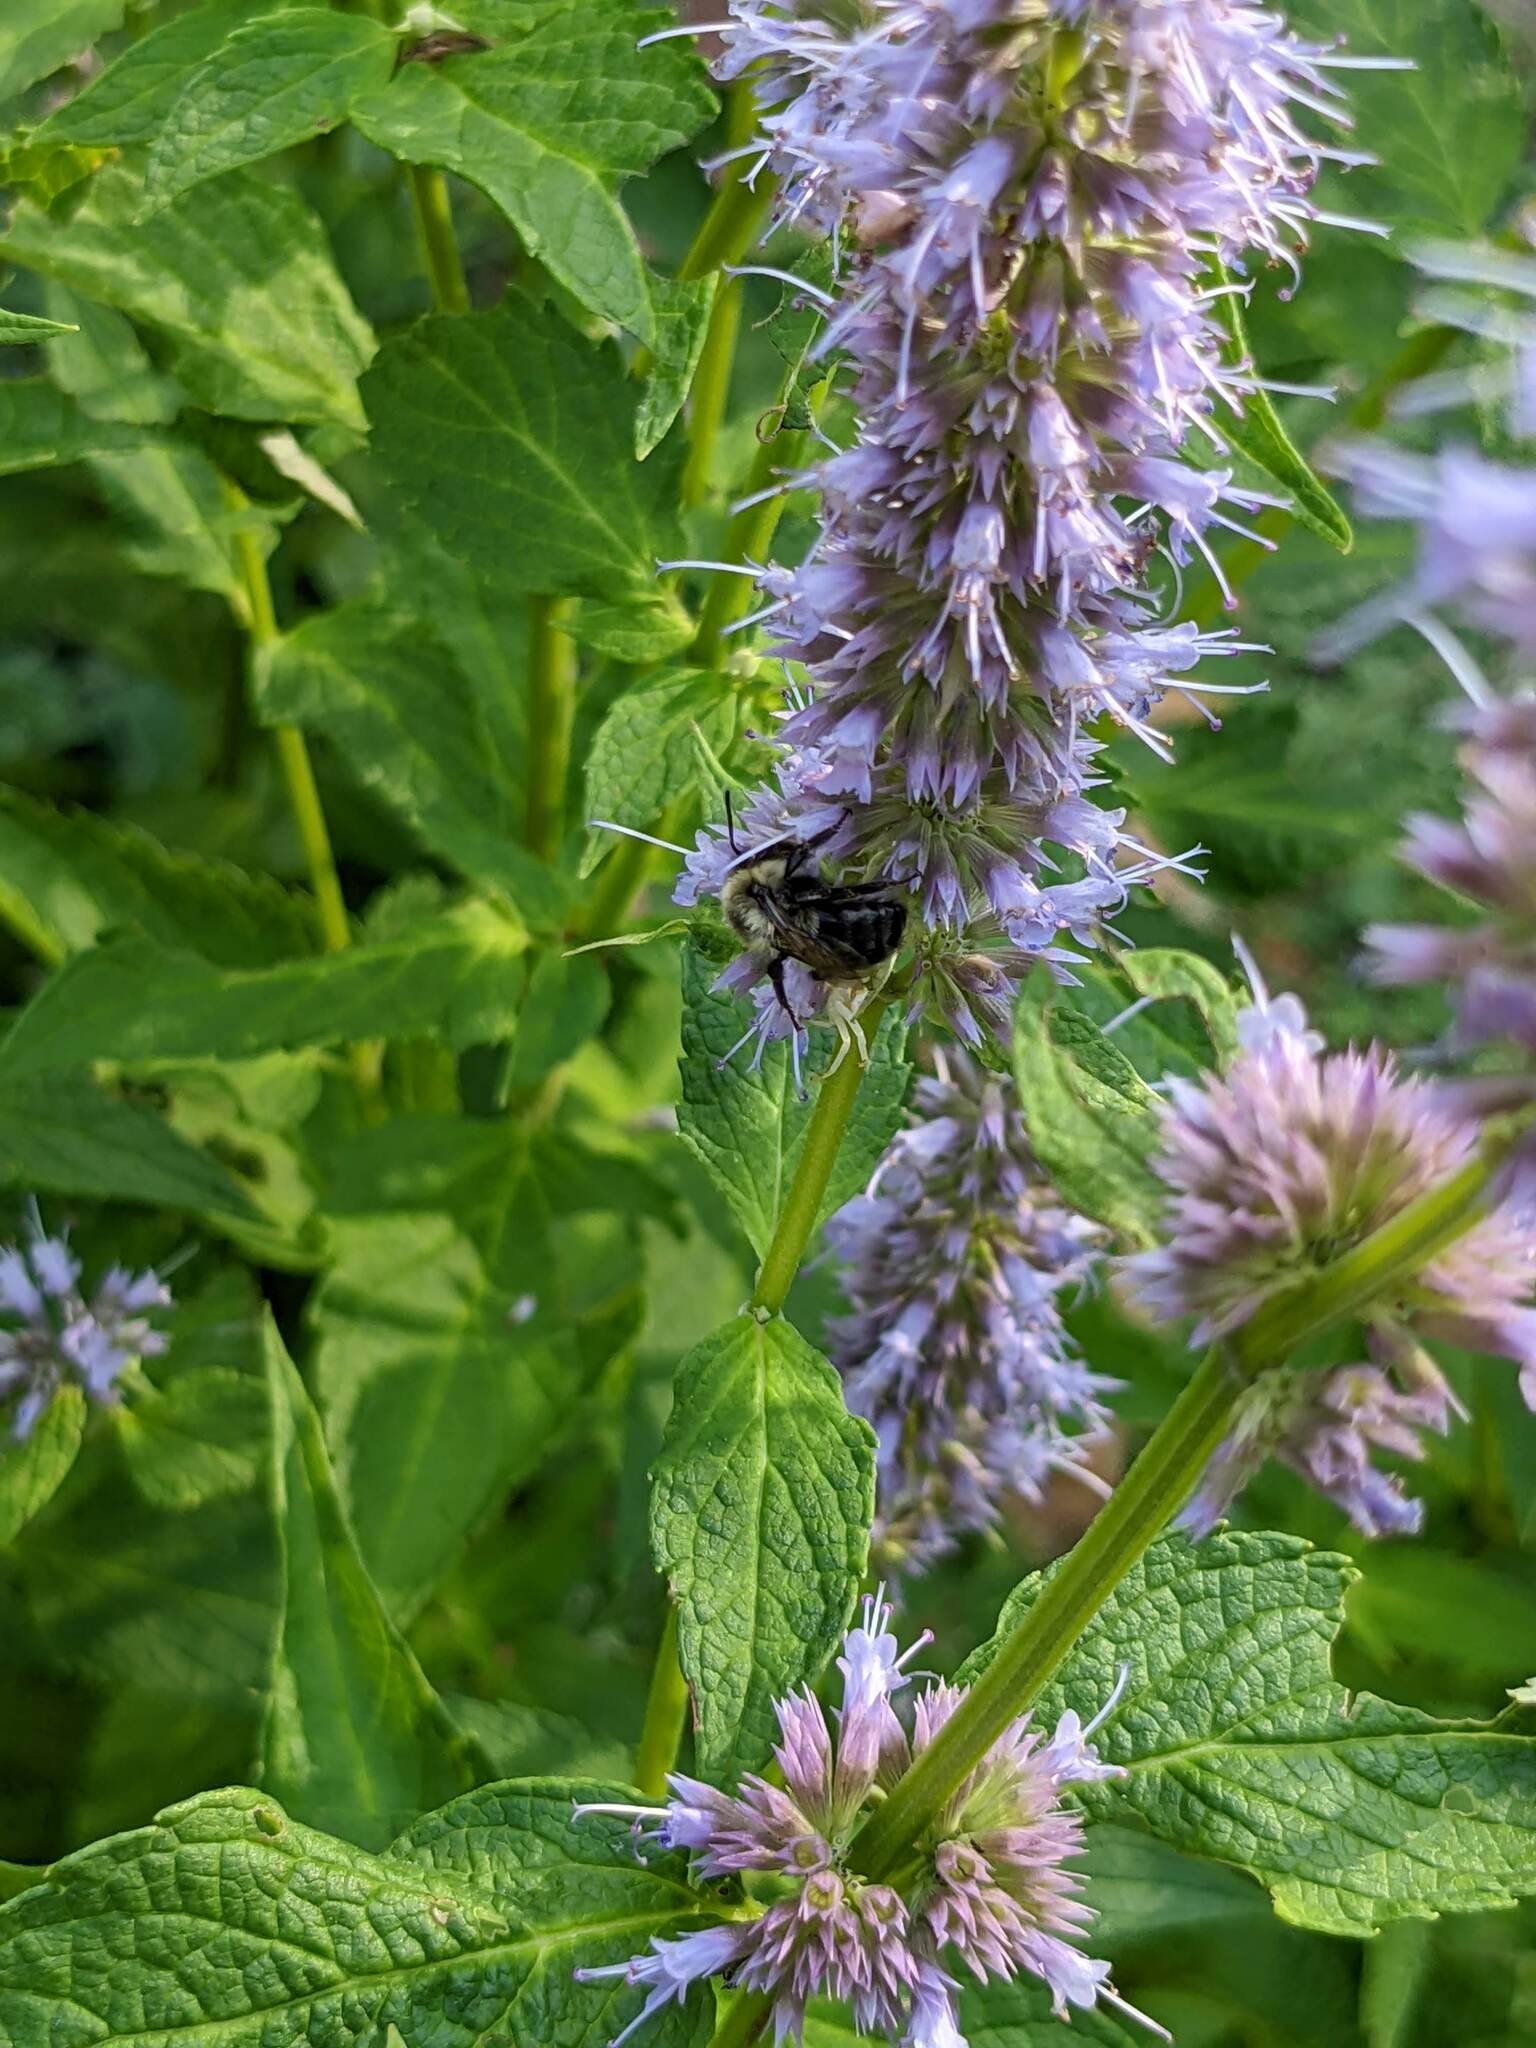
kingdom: Animalia
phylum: Arthropoda
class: Insecta
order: Hymenoptera
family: Apidae
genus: Bombus
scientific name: Bombus impatiens
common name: Common eastern bumble bee
